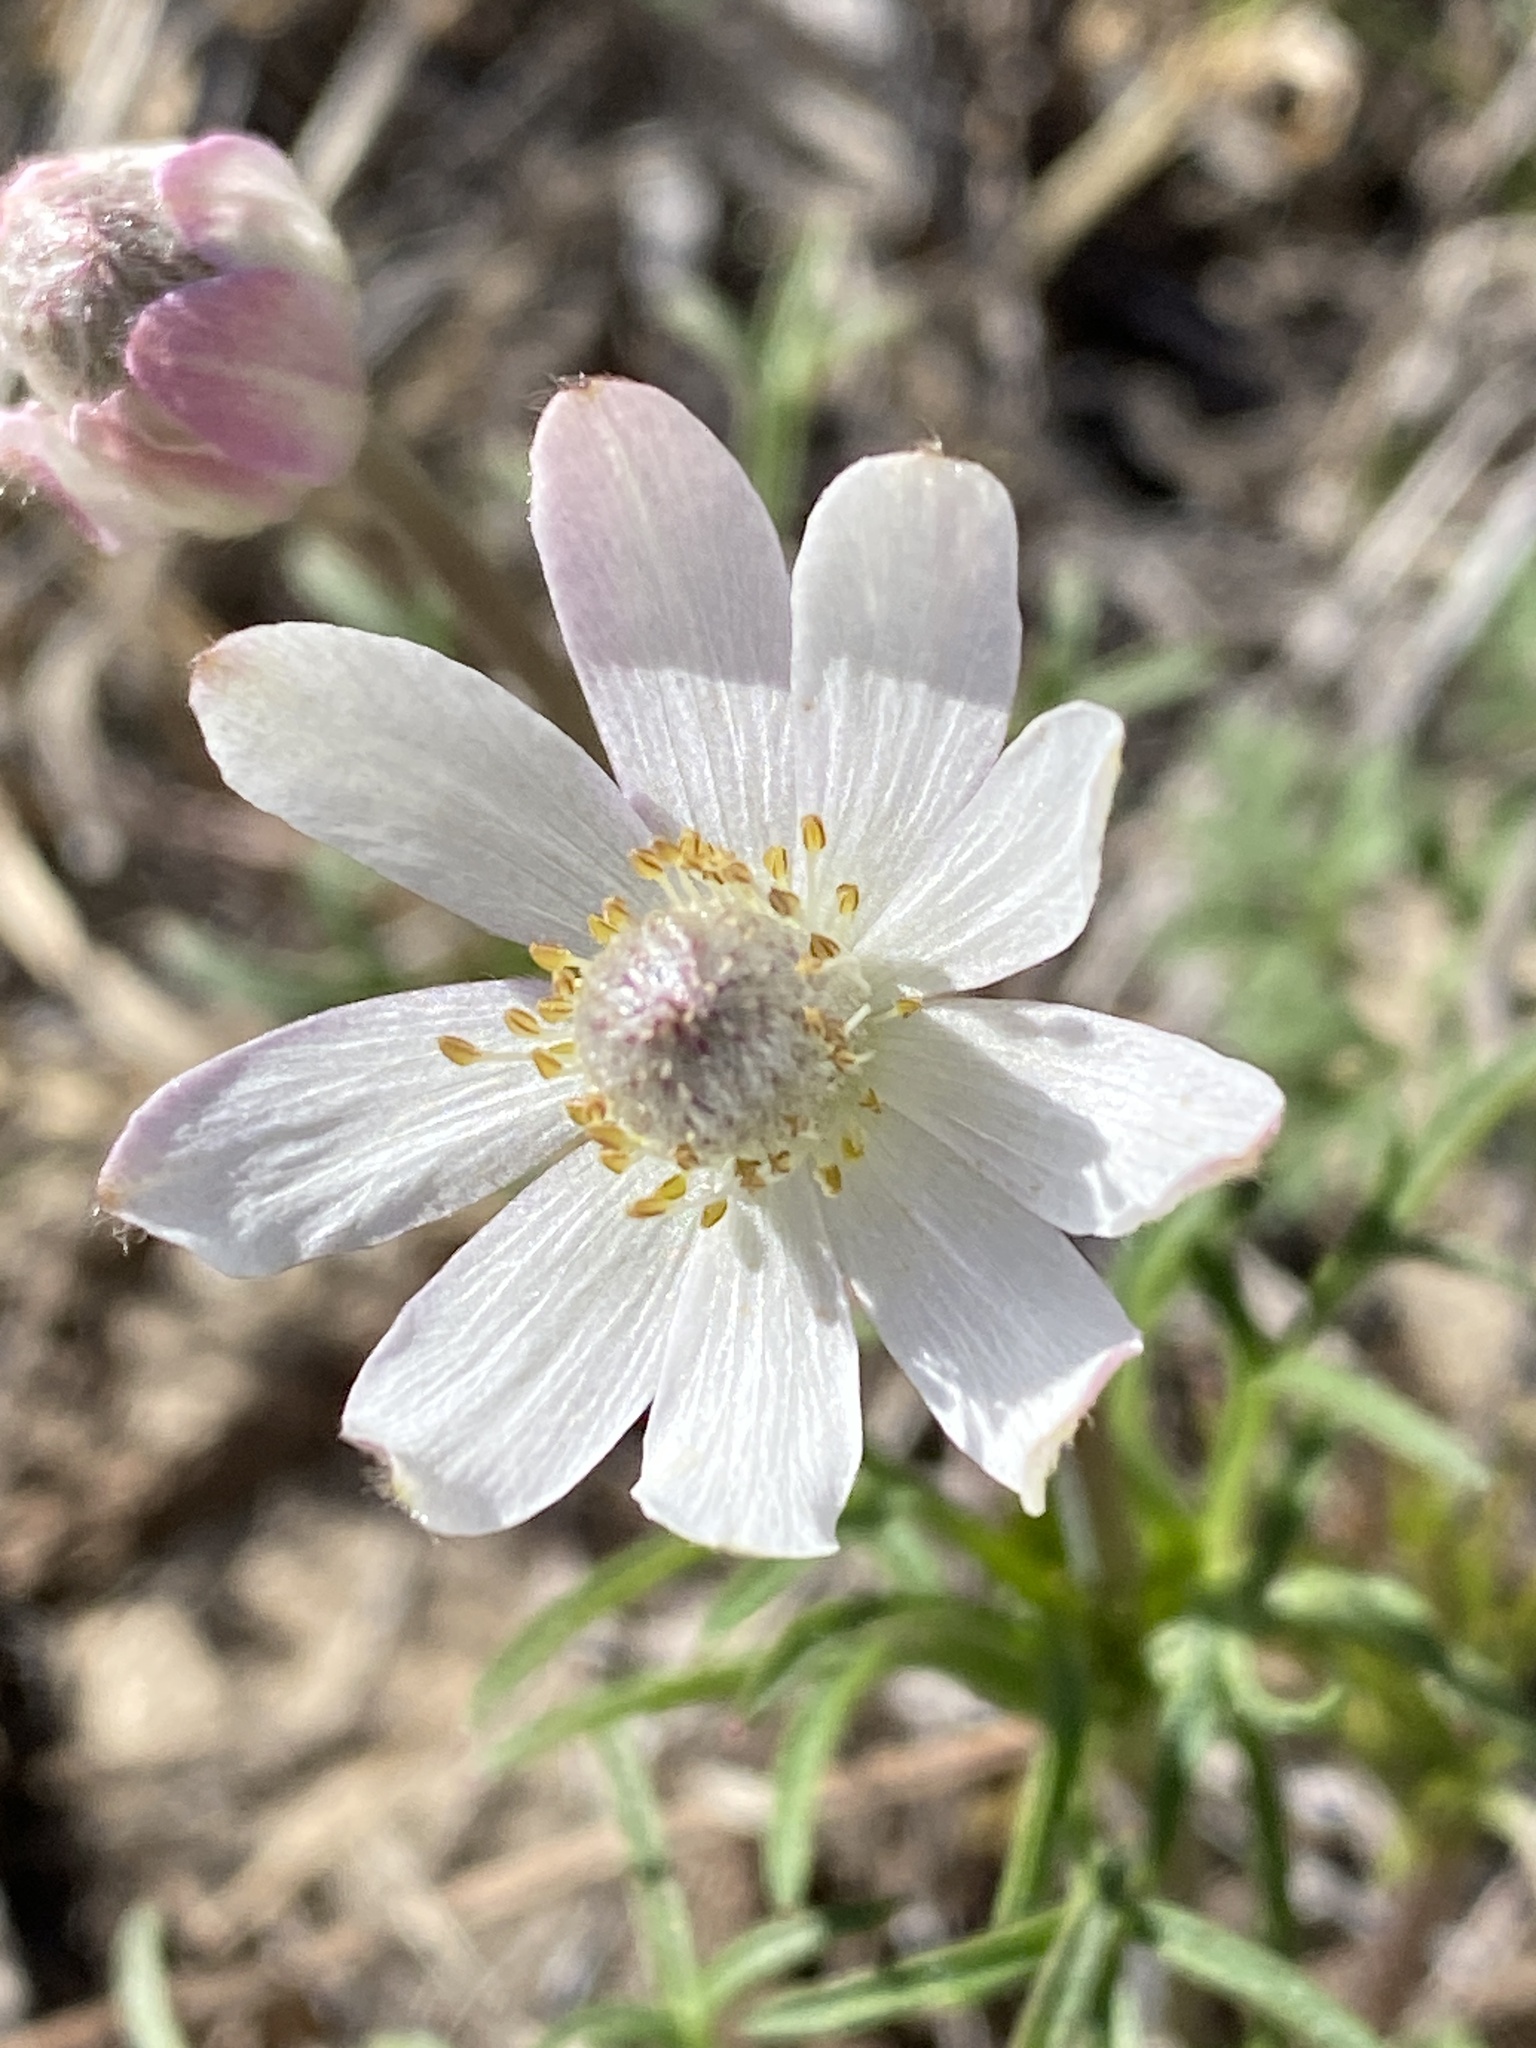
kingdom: Plantae
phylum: Tracheophyta
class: Magnoliopsida
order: Ranunculales
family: Ranunculaceae
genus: Anemone
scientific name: Anemone tuberosa
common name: Desert anemone
